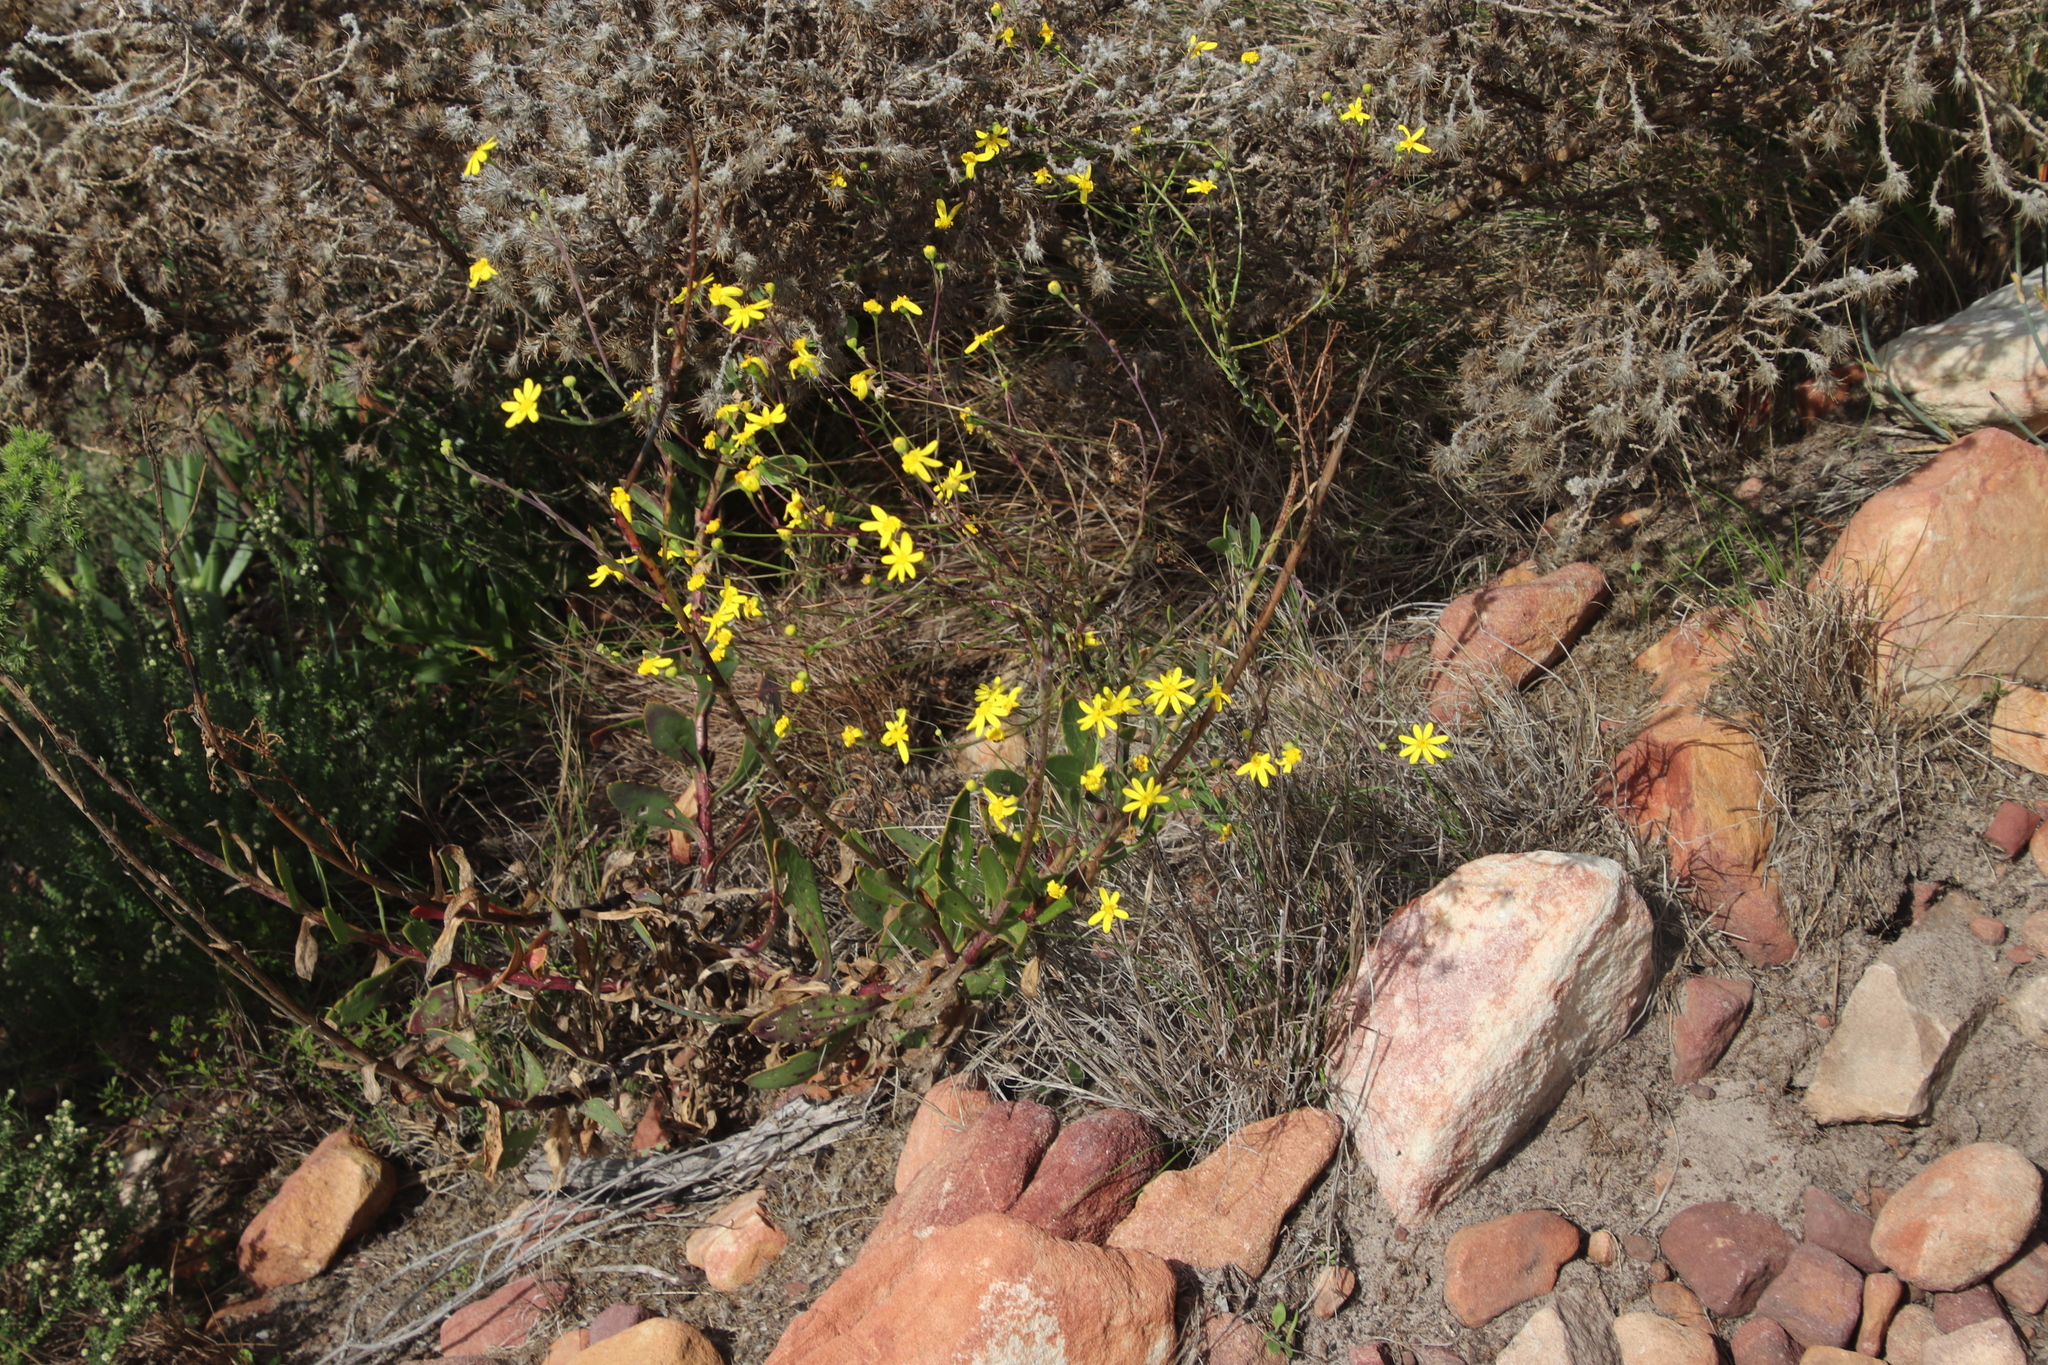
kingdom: Plantae
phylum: Tracheophyta
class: Magnoliopsida
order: Asterales
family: Asteraceae
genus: Othonna
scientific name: Othonna quinquedentata
